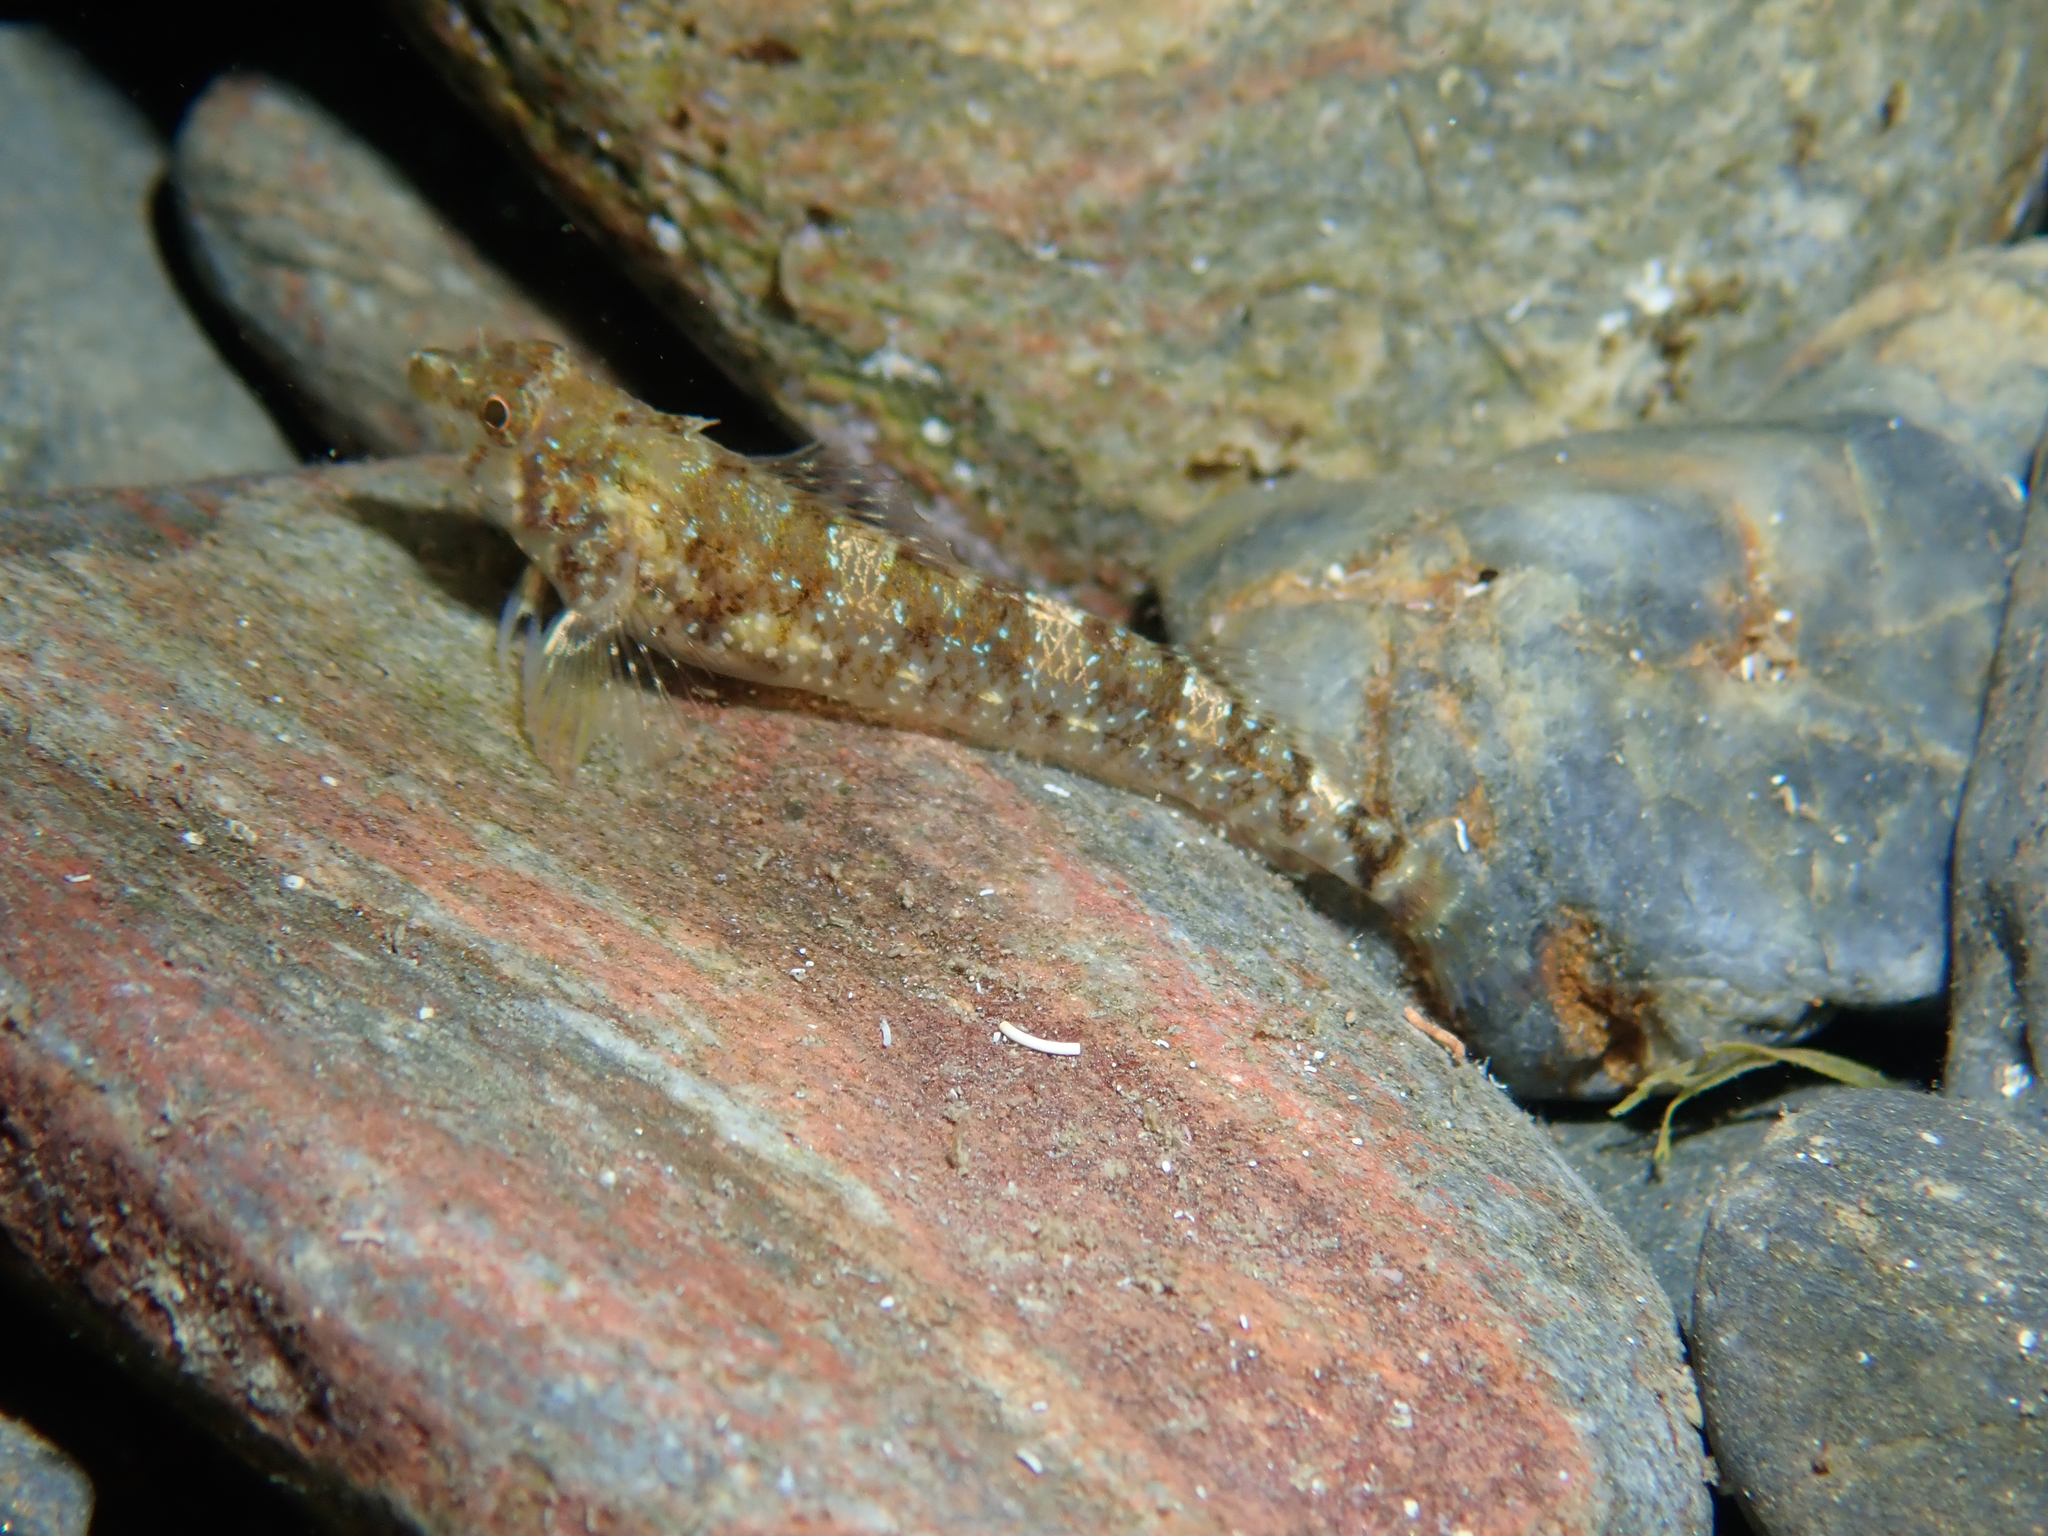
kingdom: Animalia
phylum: Chordata
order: Perciformes
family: Tripterygiidae
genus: Tripterygion
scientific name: Tripterygion tripteronotum
